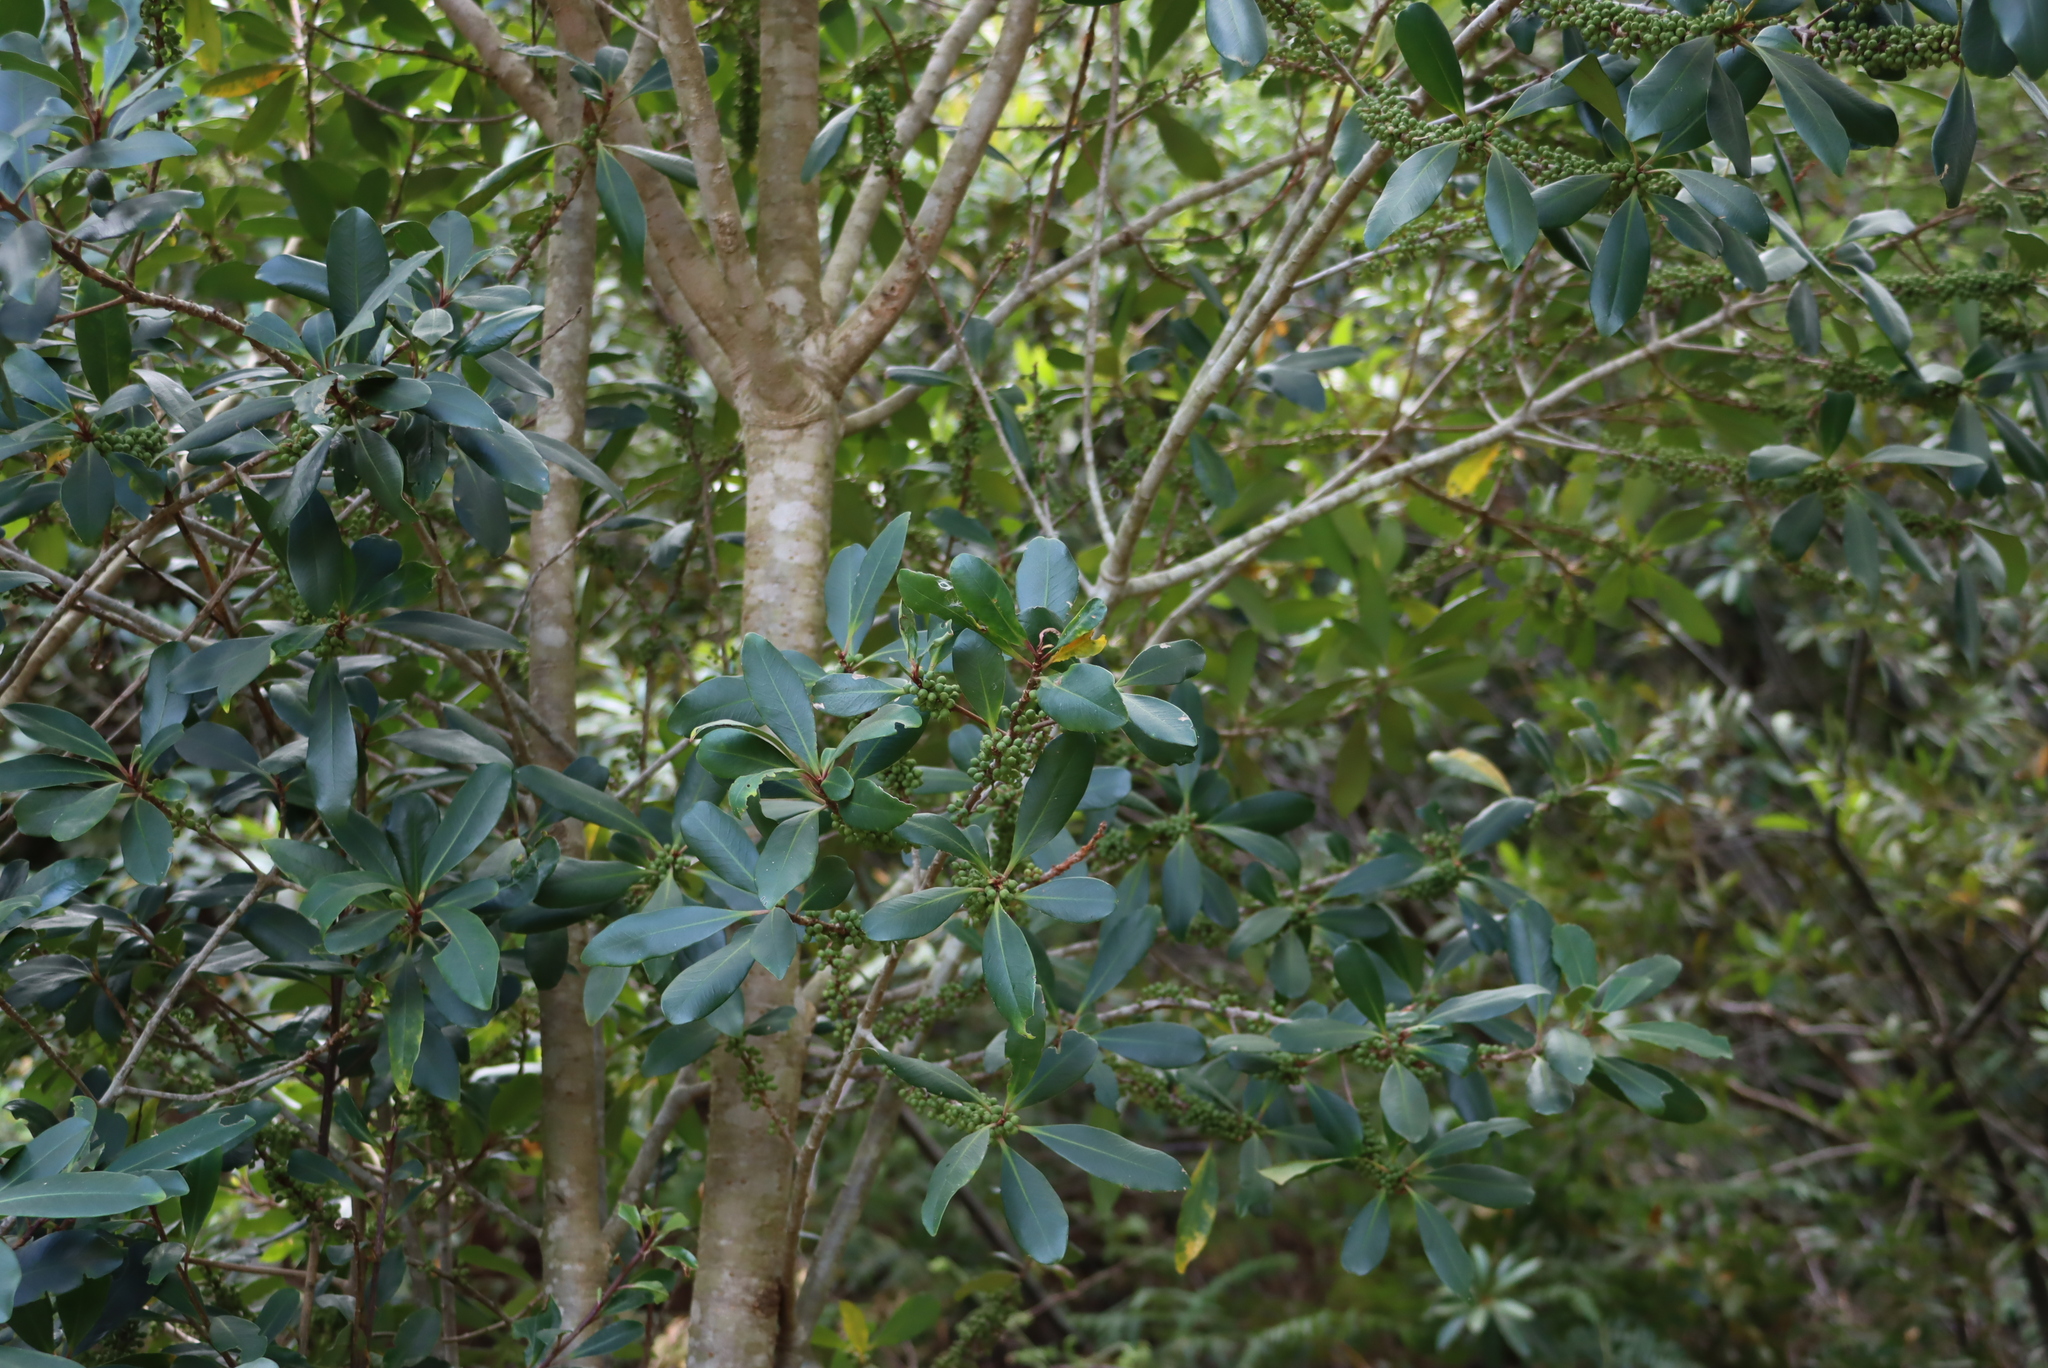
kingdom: Plantae
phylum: Tracheophyta
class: Magnoliopsida
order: Ericales
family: Primulaceae
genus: Myrsine
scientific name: Myrsine melanophloeos
